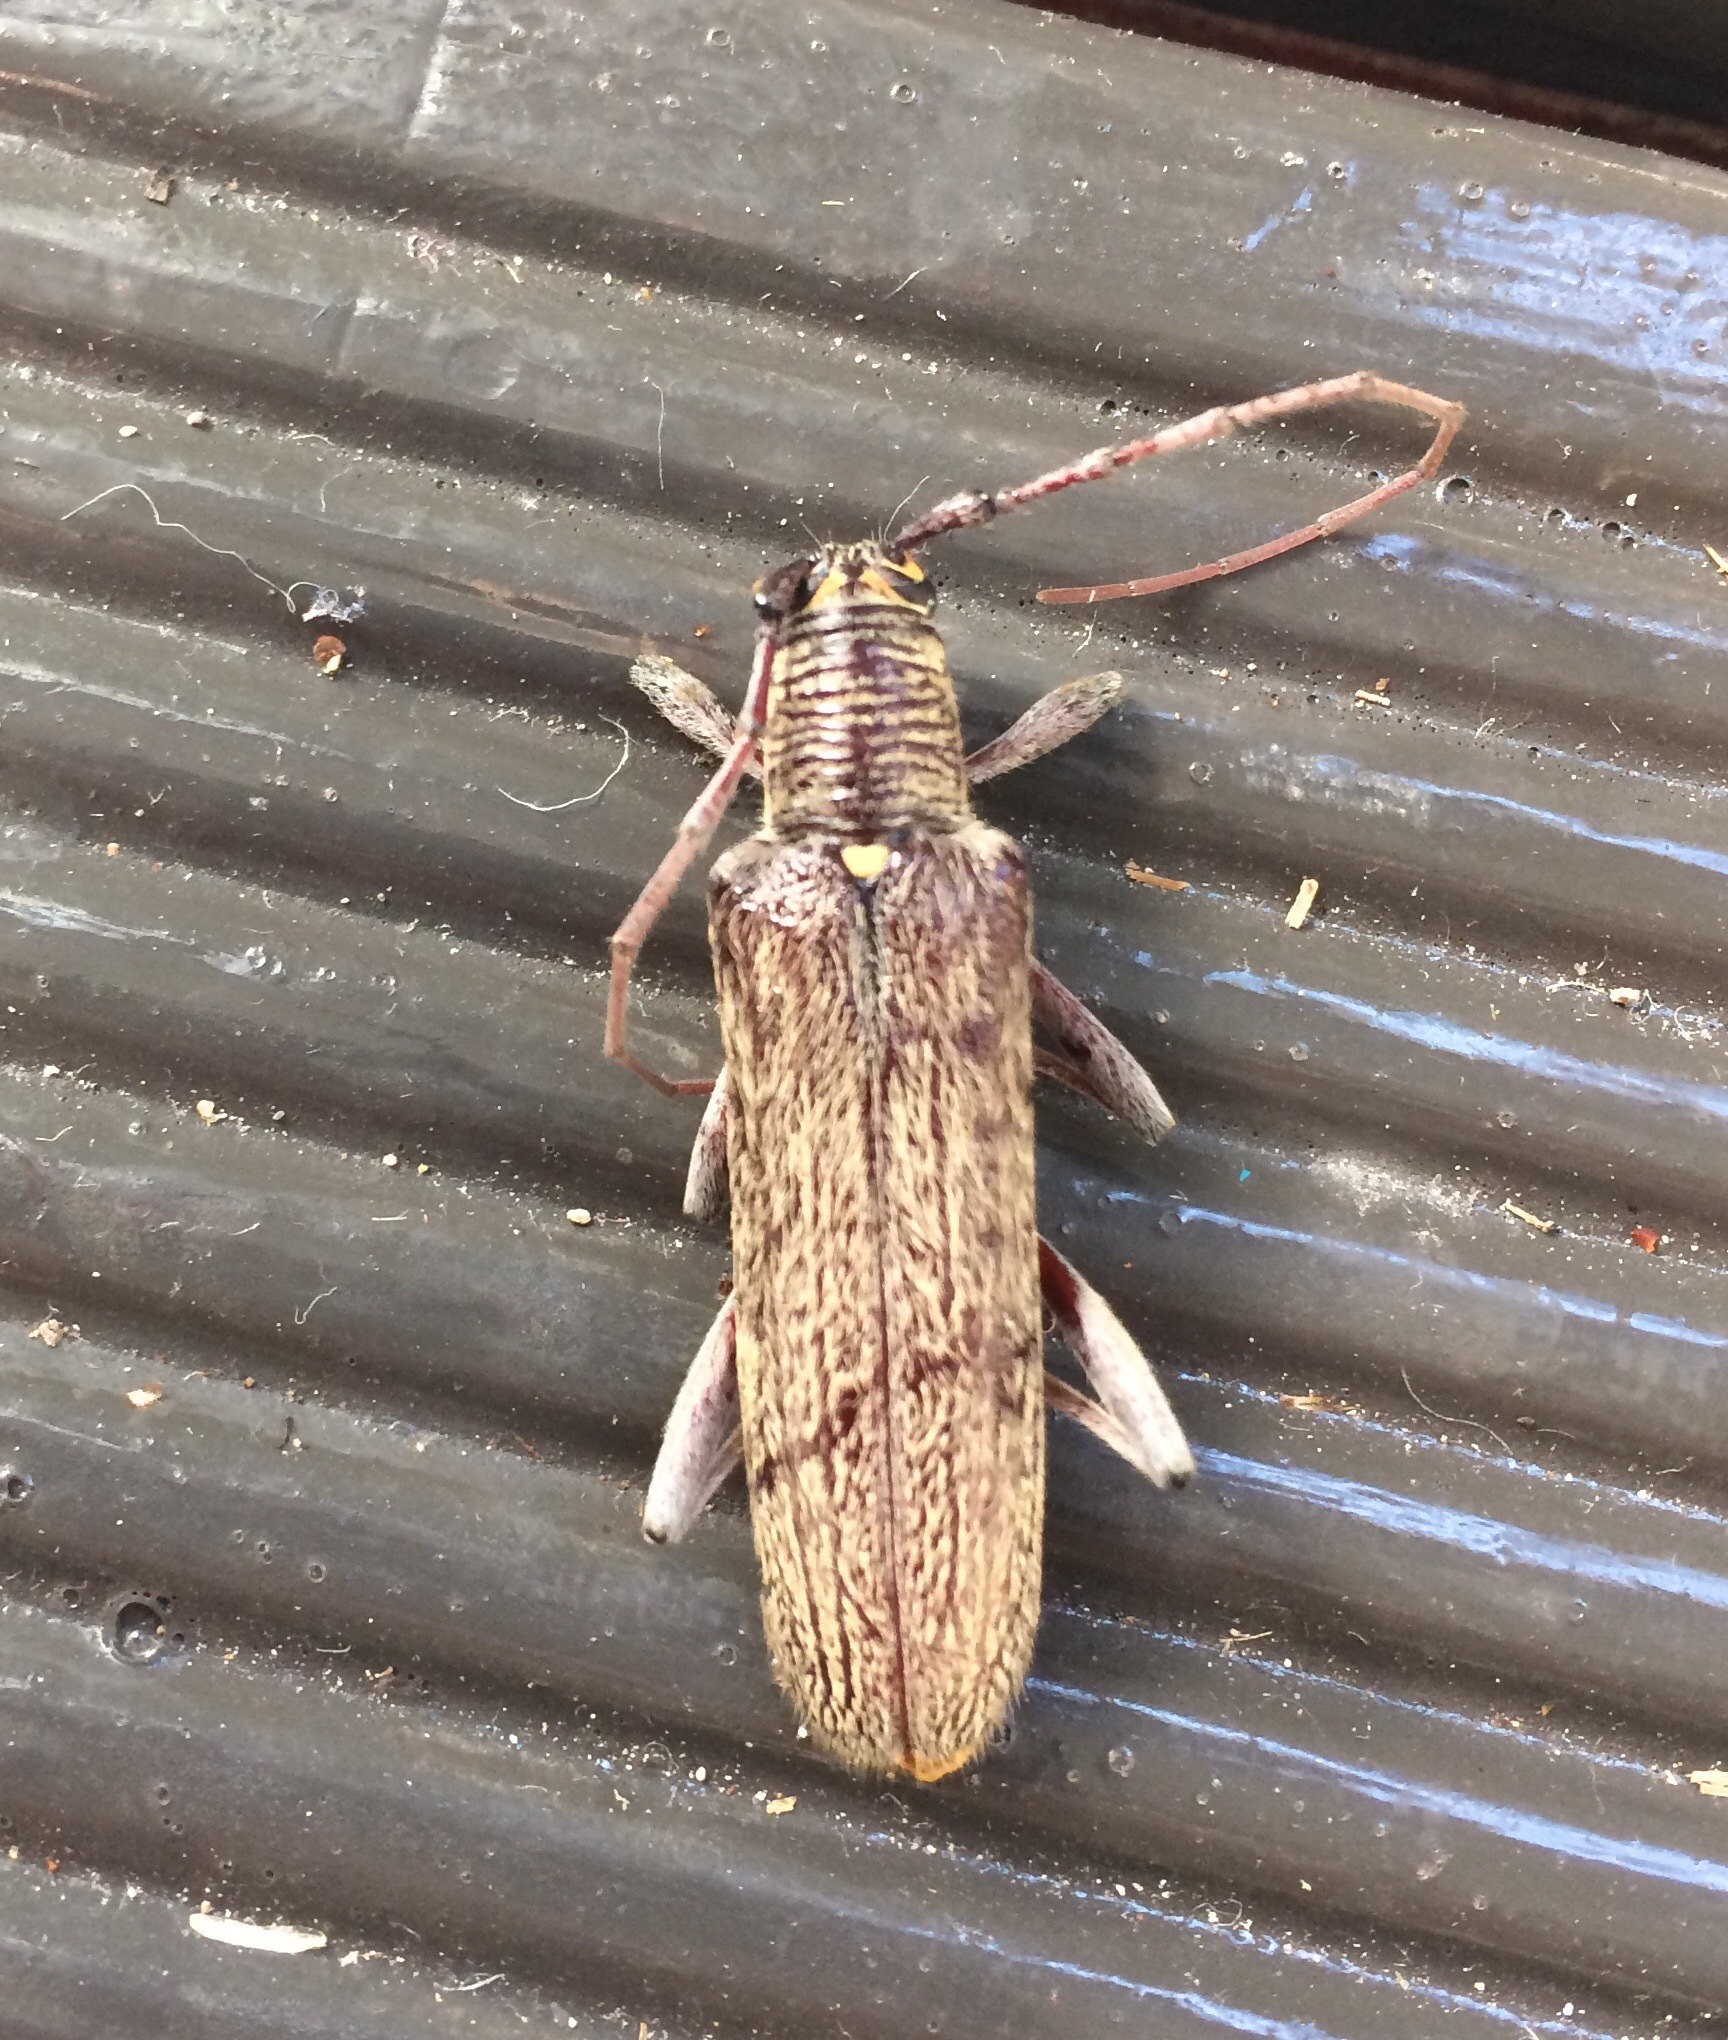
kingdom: Animalia
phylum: Arthropoda
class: Insecta
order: Coleoptera
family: Cerambycidae
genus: Oemona
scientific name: Oemona hirta
